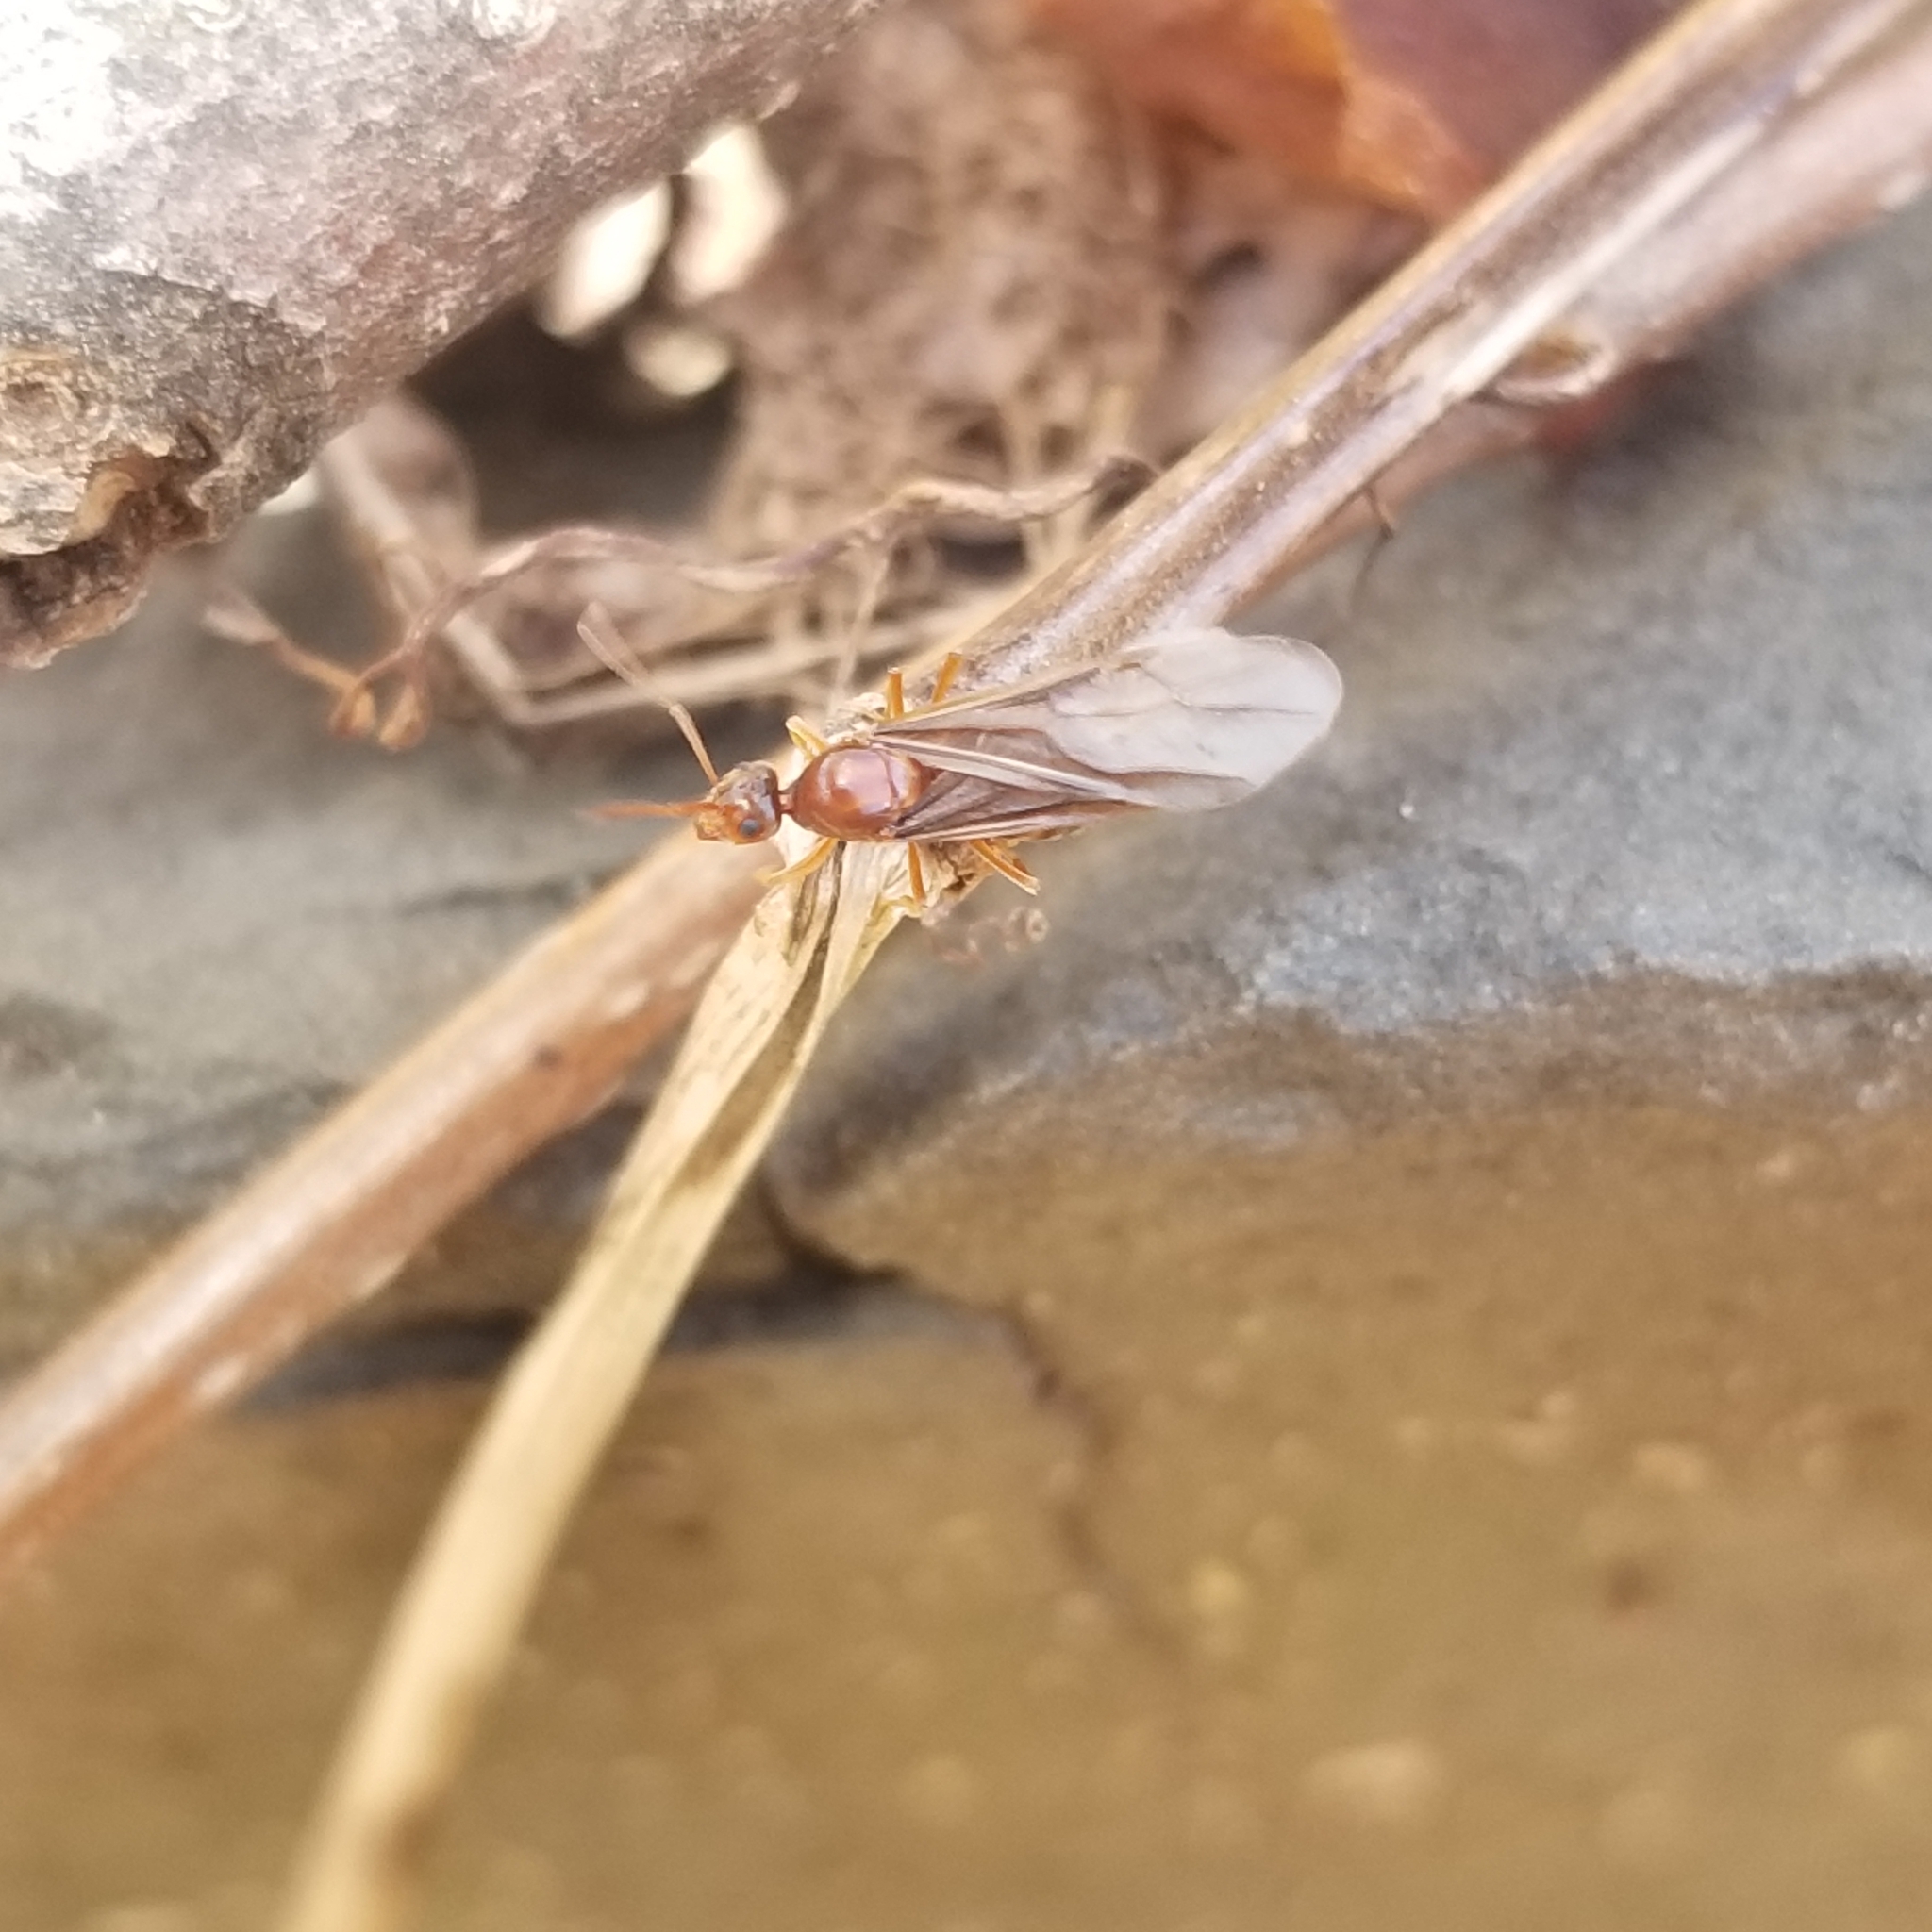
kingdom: Animalia
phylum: Arthropoda
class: Insecta
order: Hymenoptera
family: Formicidae
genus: Prenolepis
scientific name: Prenolepis imparis
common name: Small honey ant
